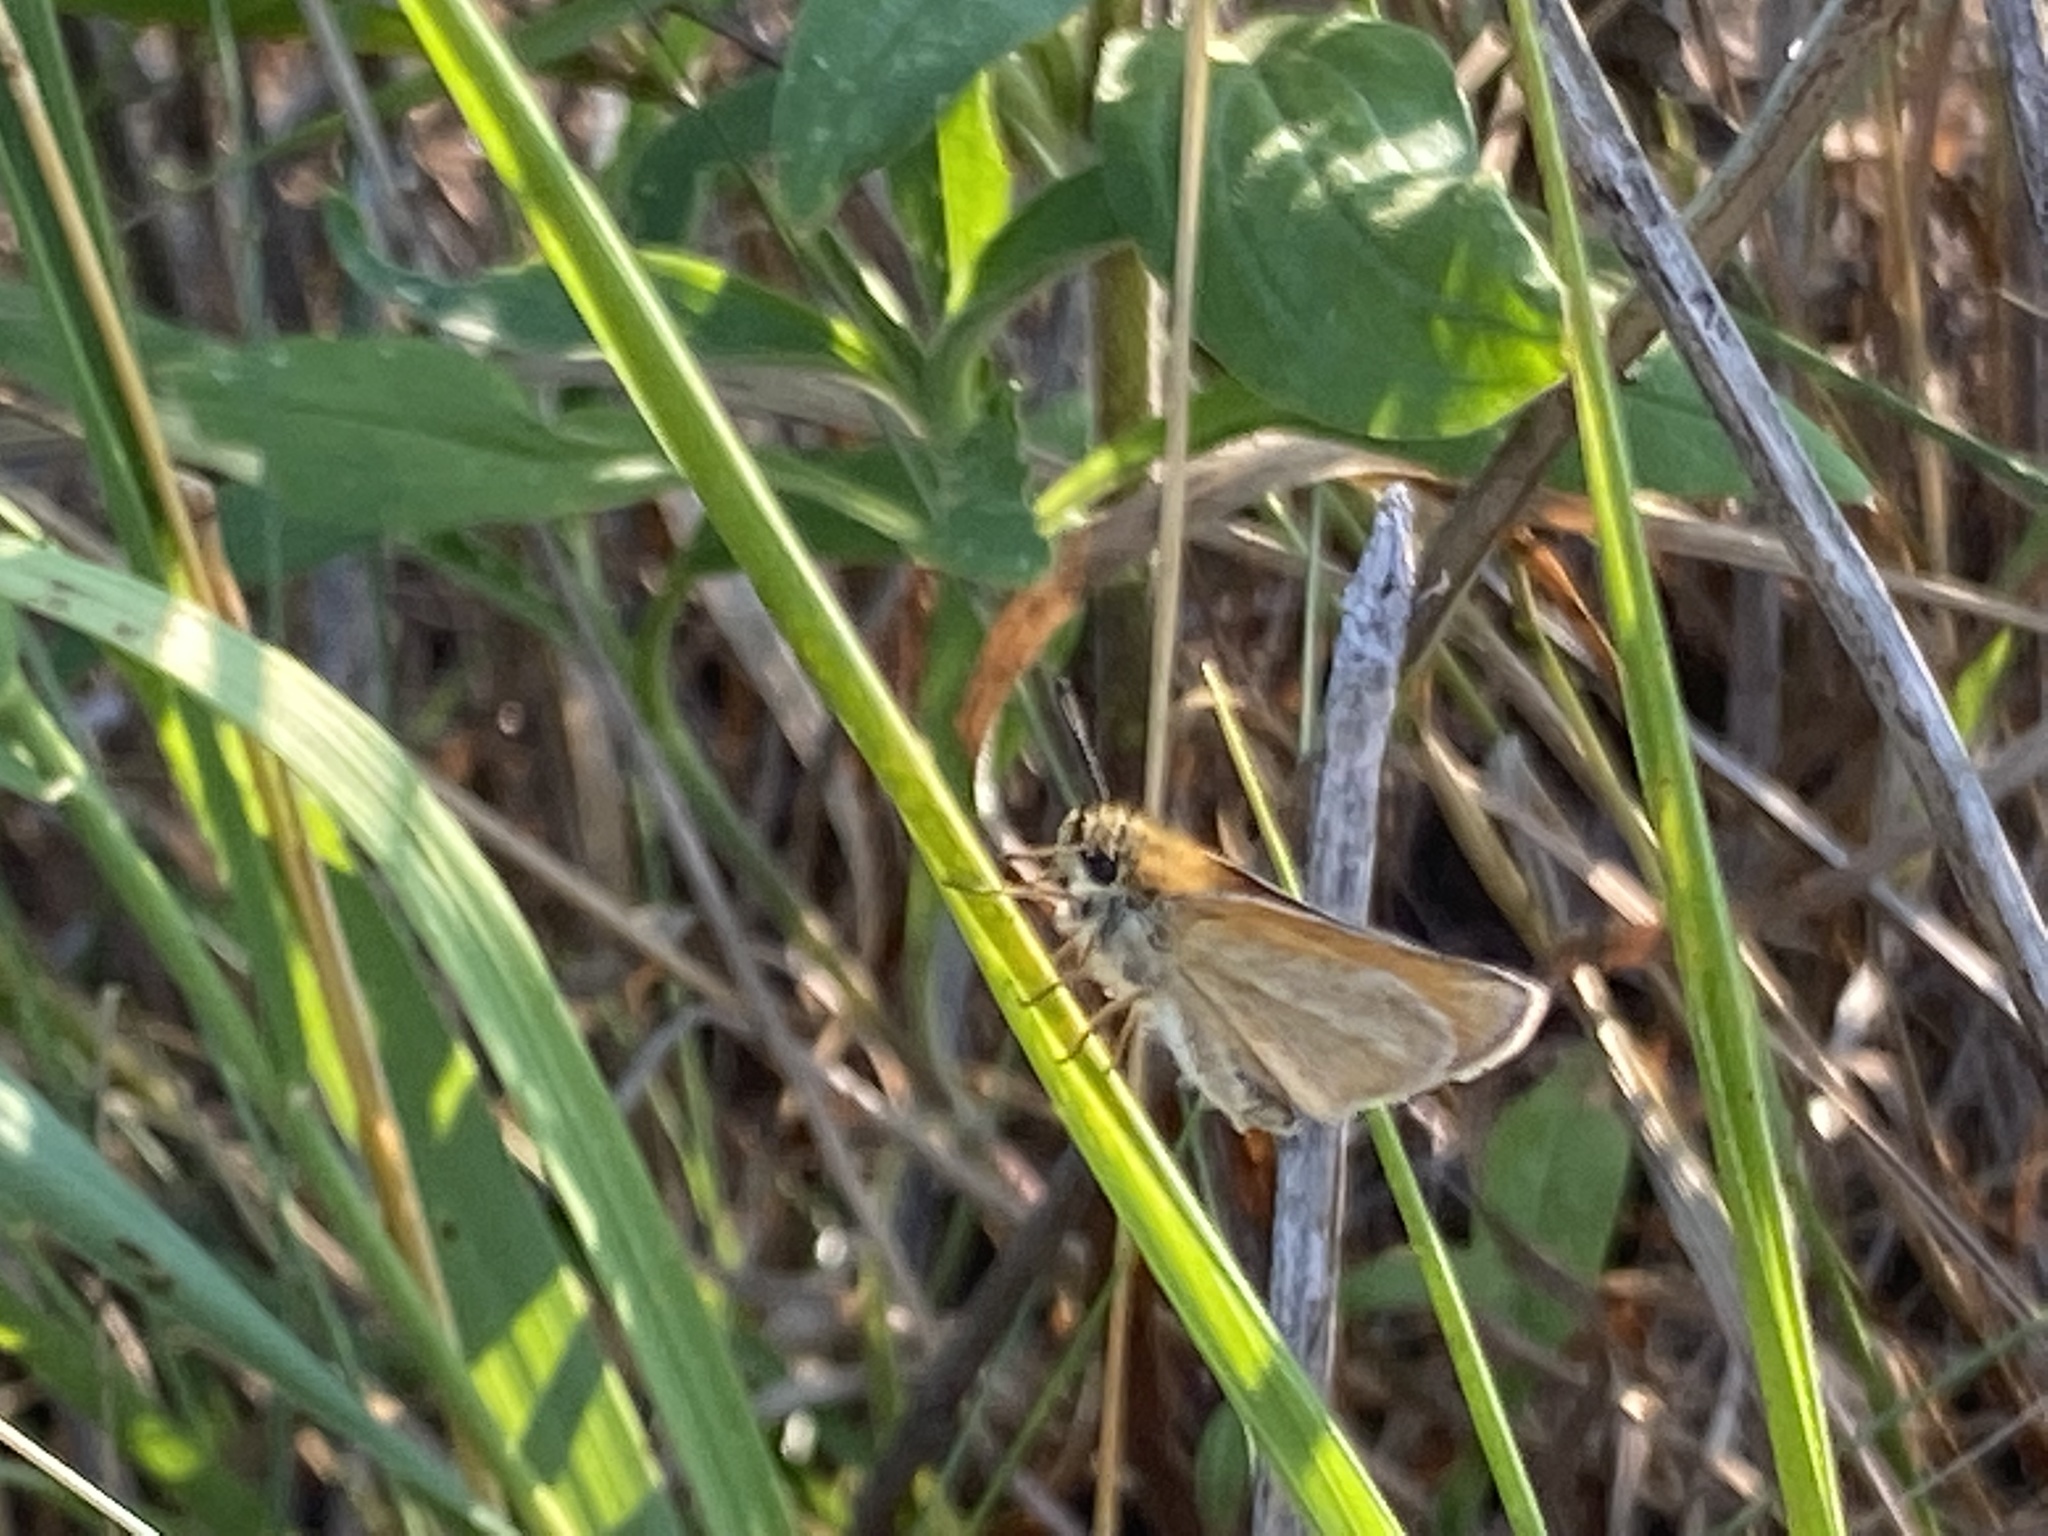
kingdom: Animalia
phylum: Arthropoda
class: Insecta
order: Lepidoptera
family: Hesperiidae
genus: Thymelicus
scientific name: Thymelicus lineola
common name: Essex skipper
